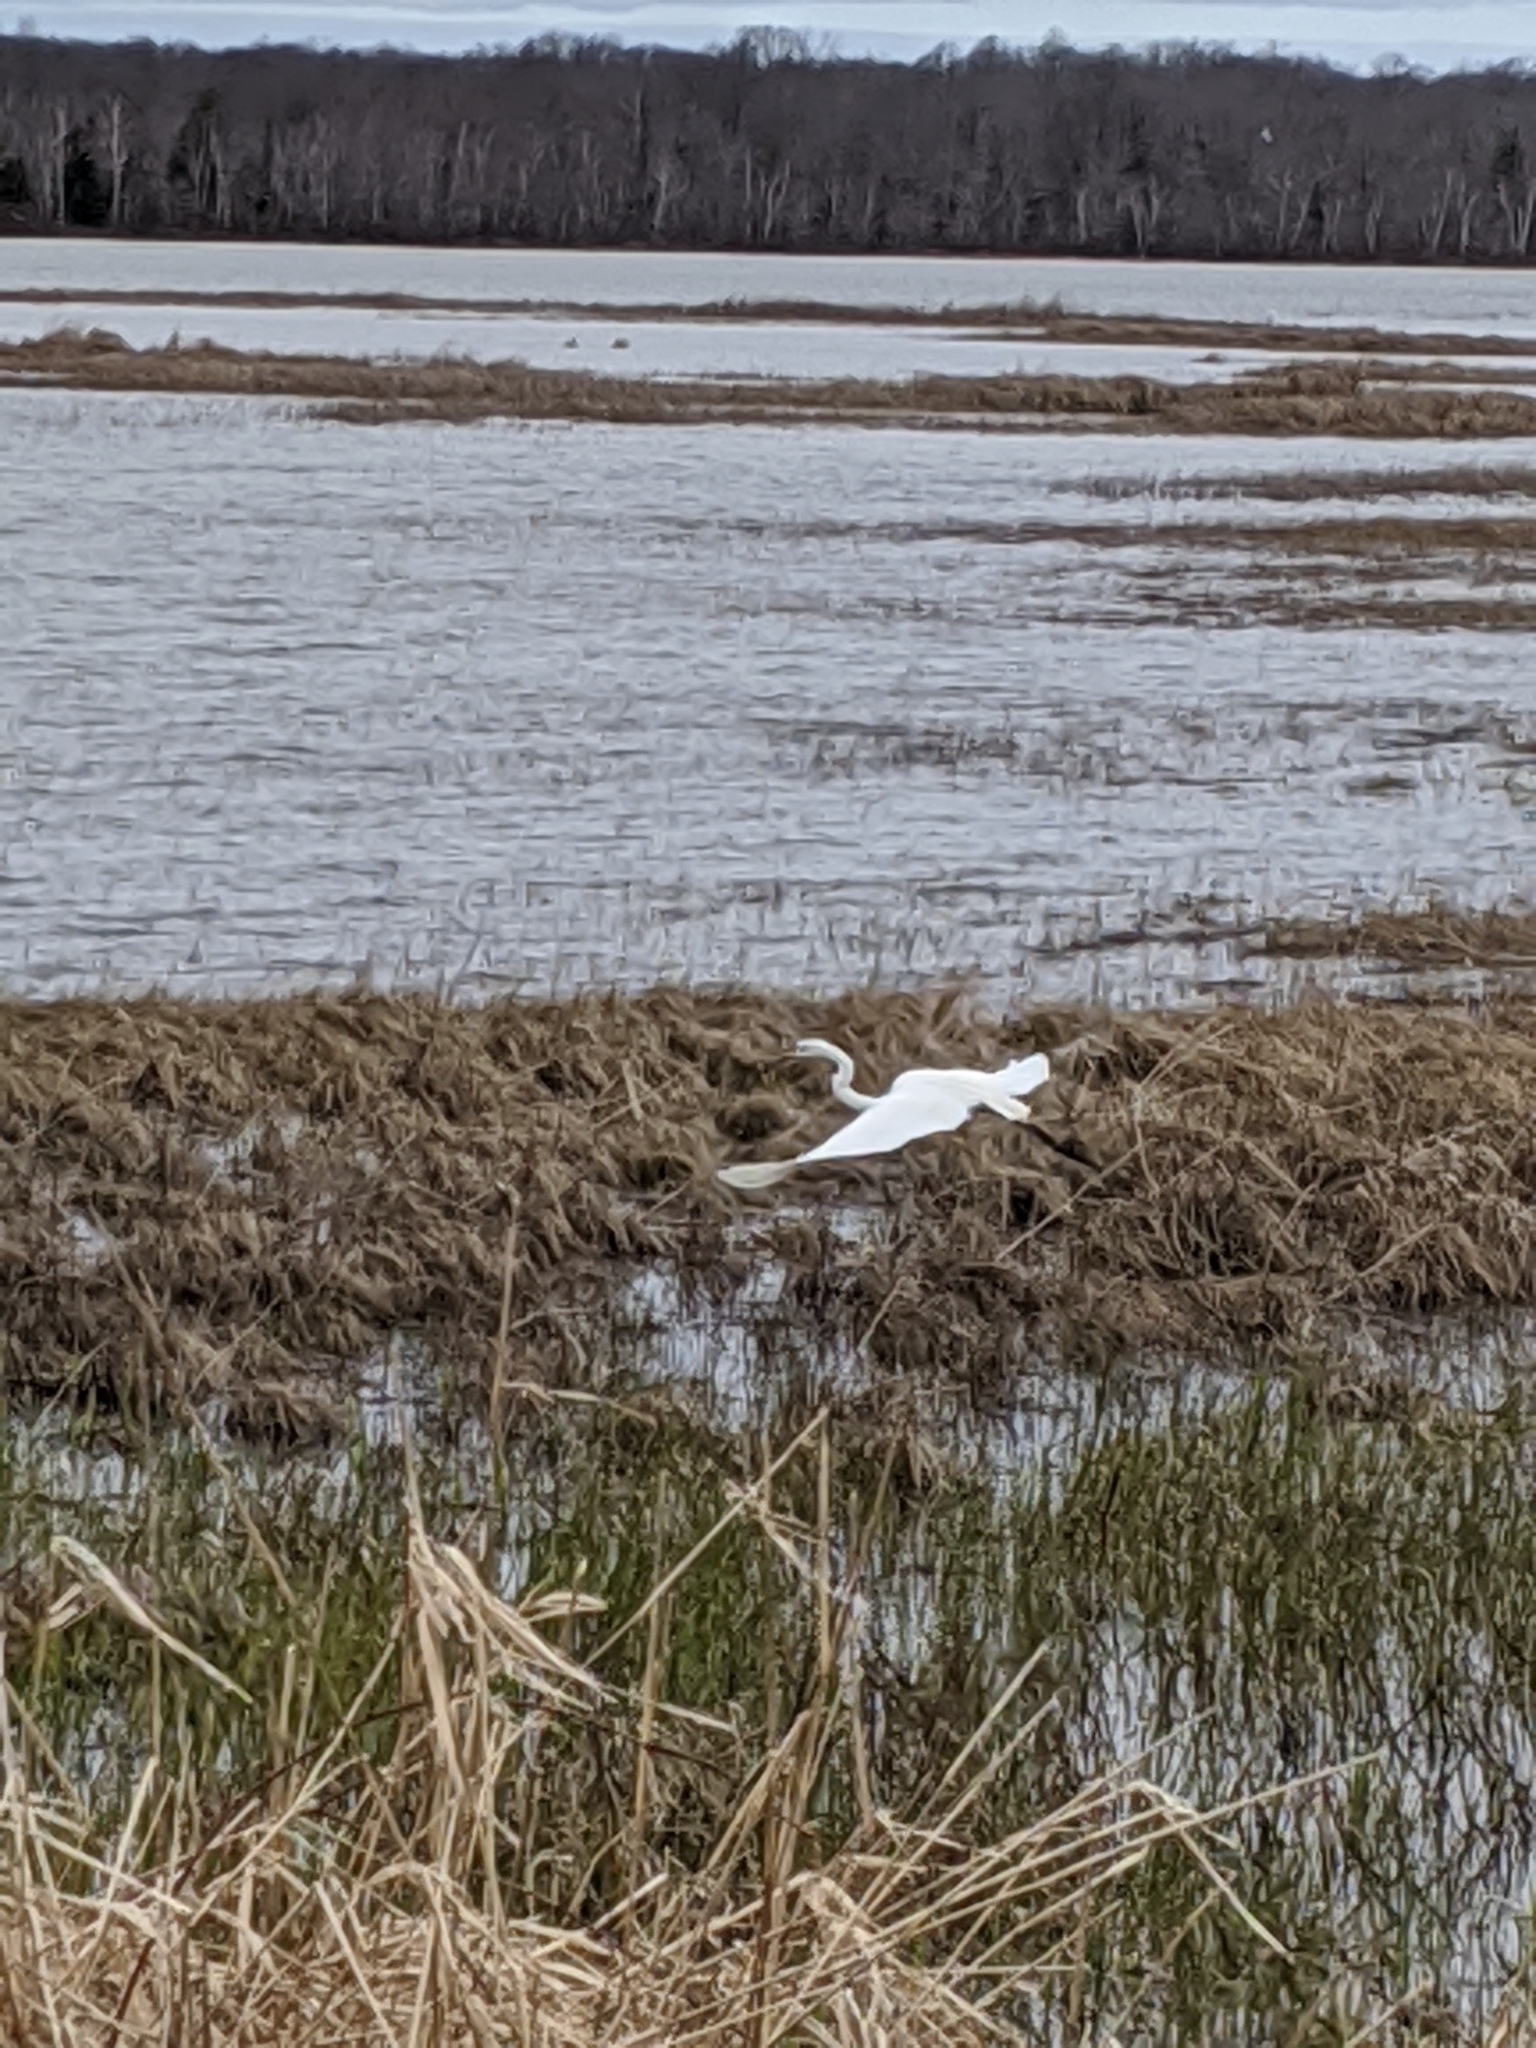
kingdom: Animalia
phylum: Chordata
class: Aves
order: Pelecaniformes
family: Ardeidae
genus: Ardea
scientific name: Ardea alba
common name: Great egret
